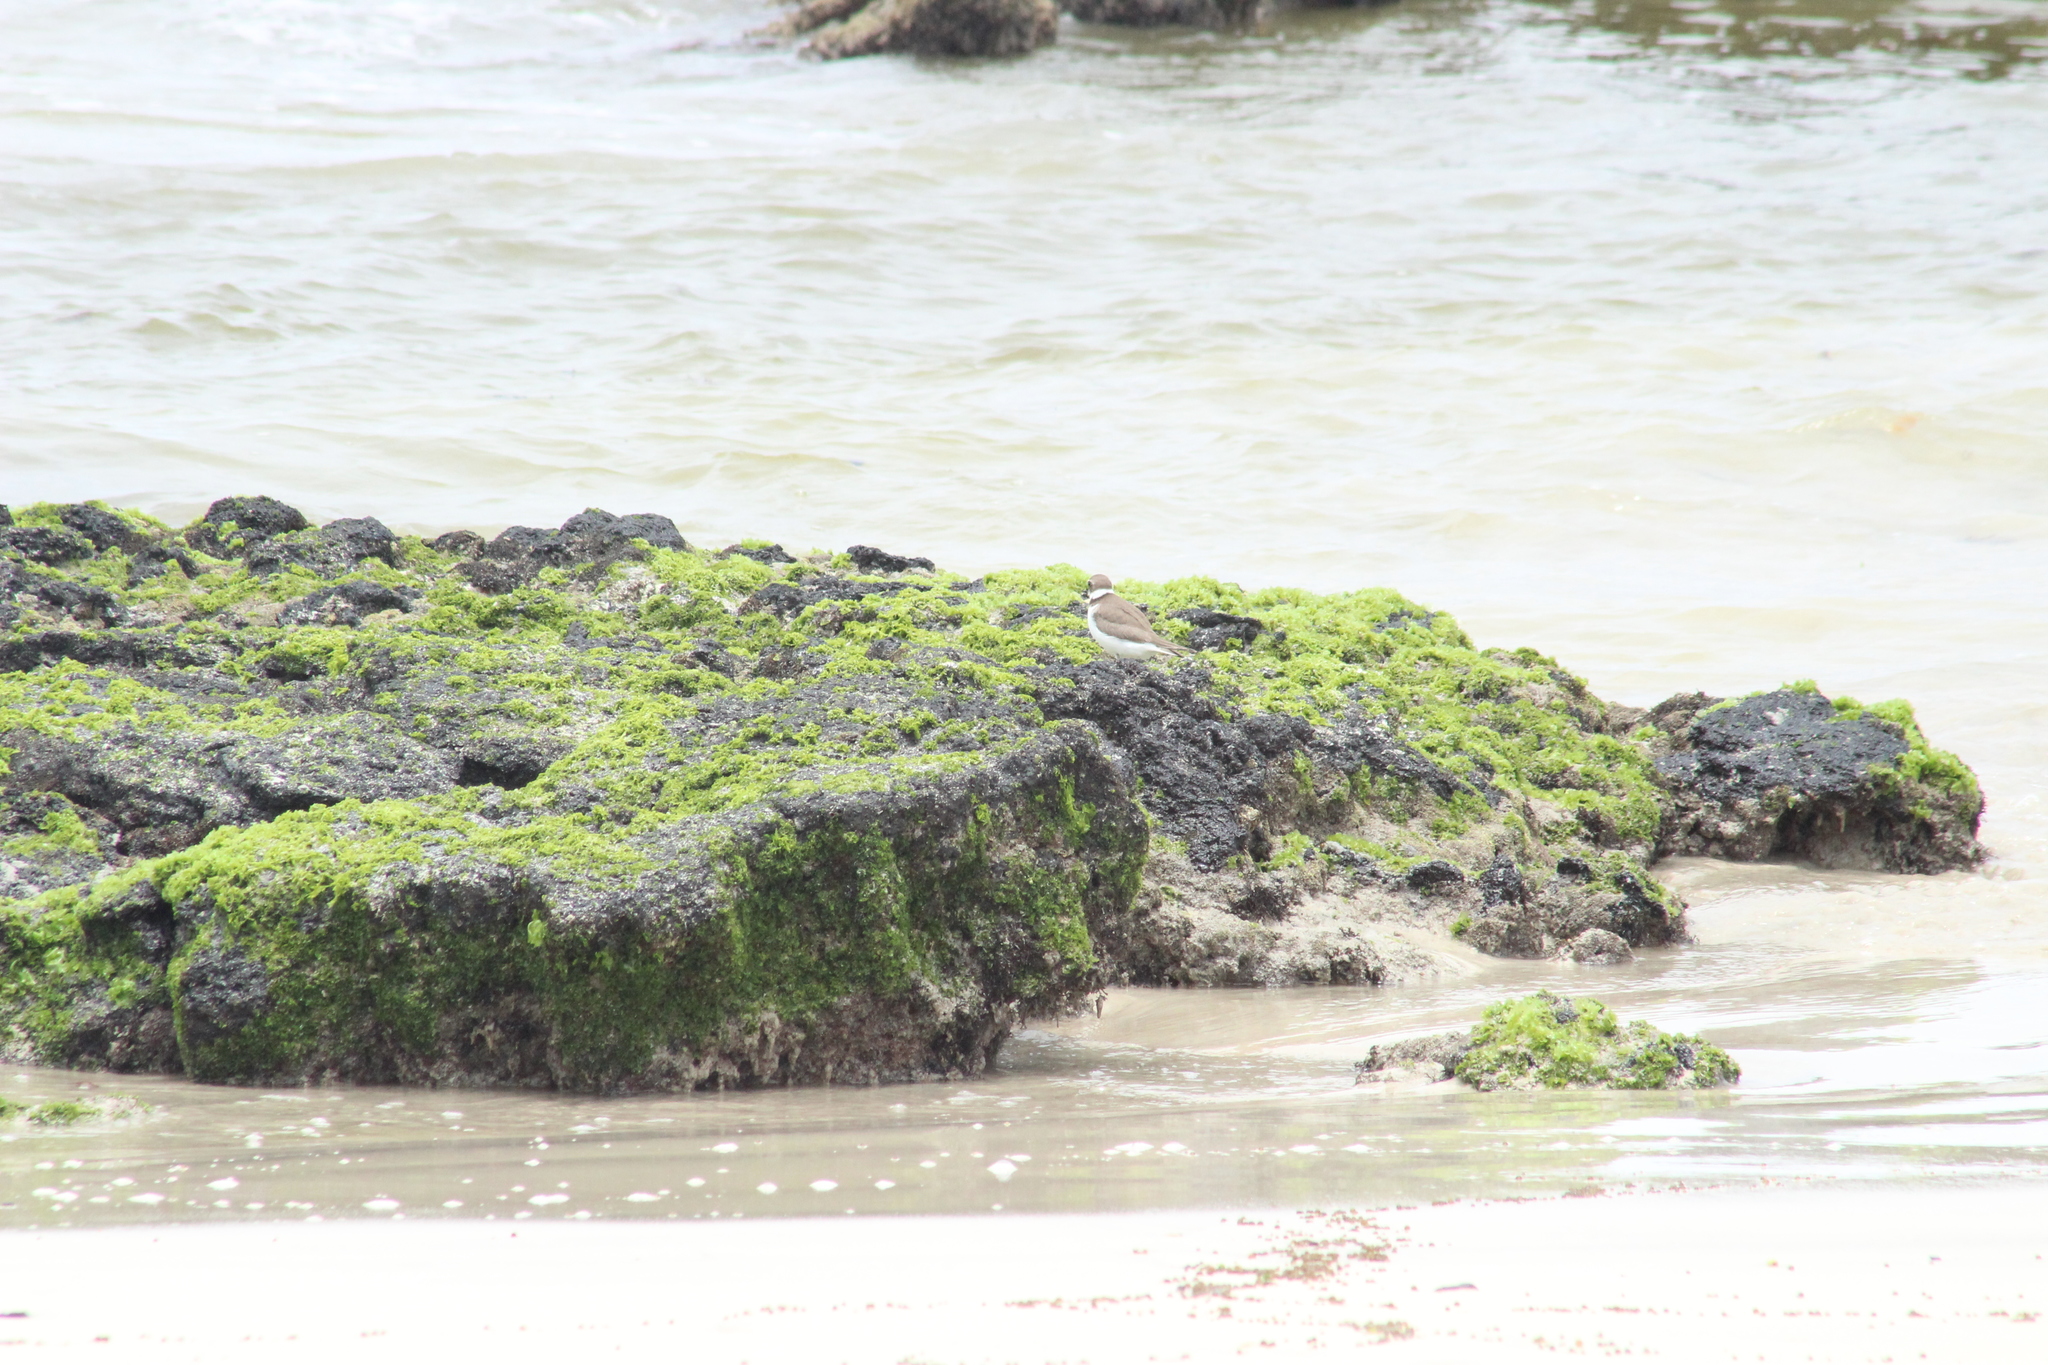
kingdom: Animalia
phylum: Chordata
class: Aves
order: Charadriiformes
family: Charadriidae
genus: Charadrius
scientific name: Charadrius semipalmatus
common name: Semipalmated plover
